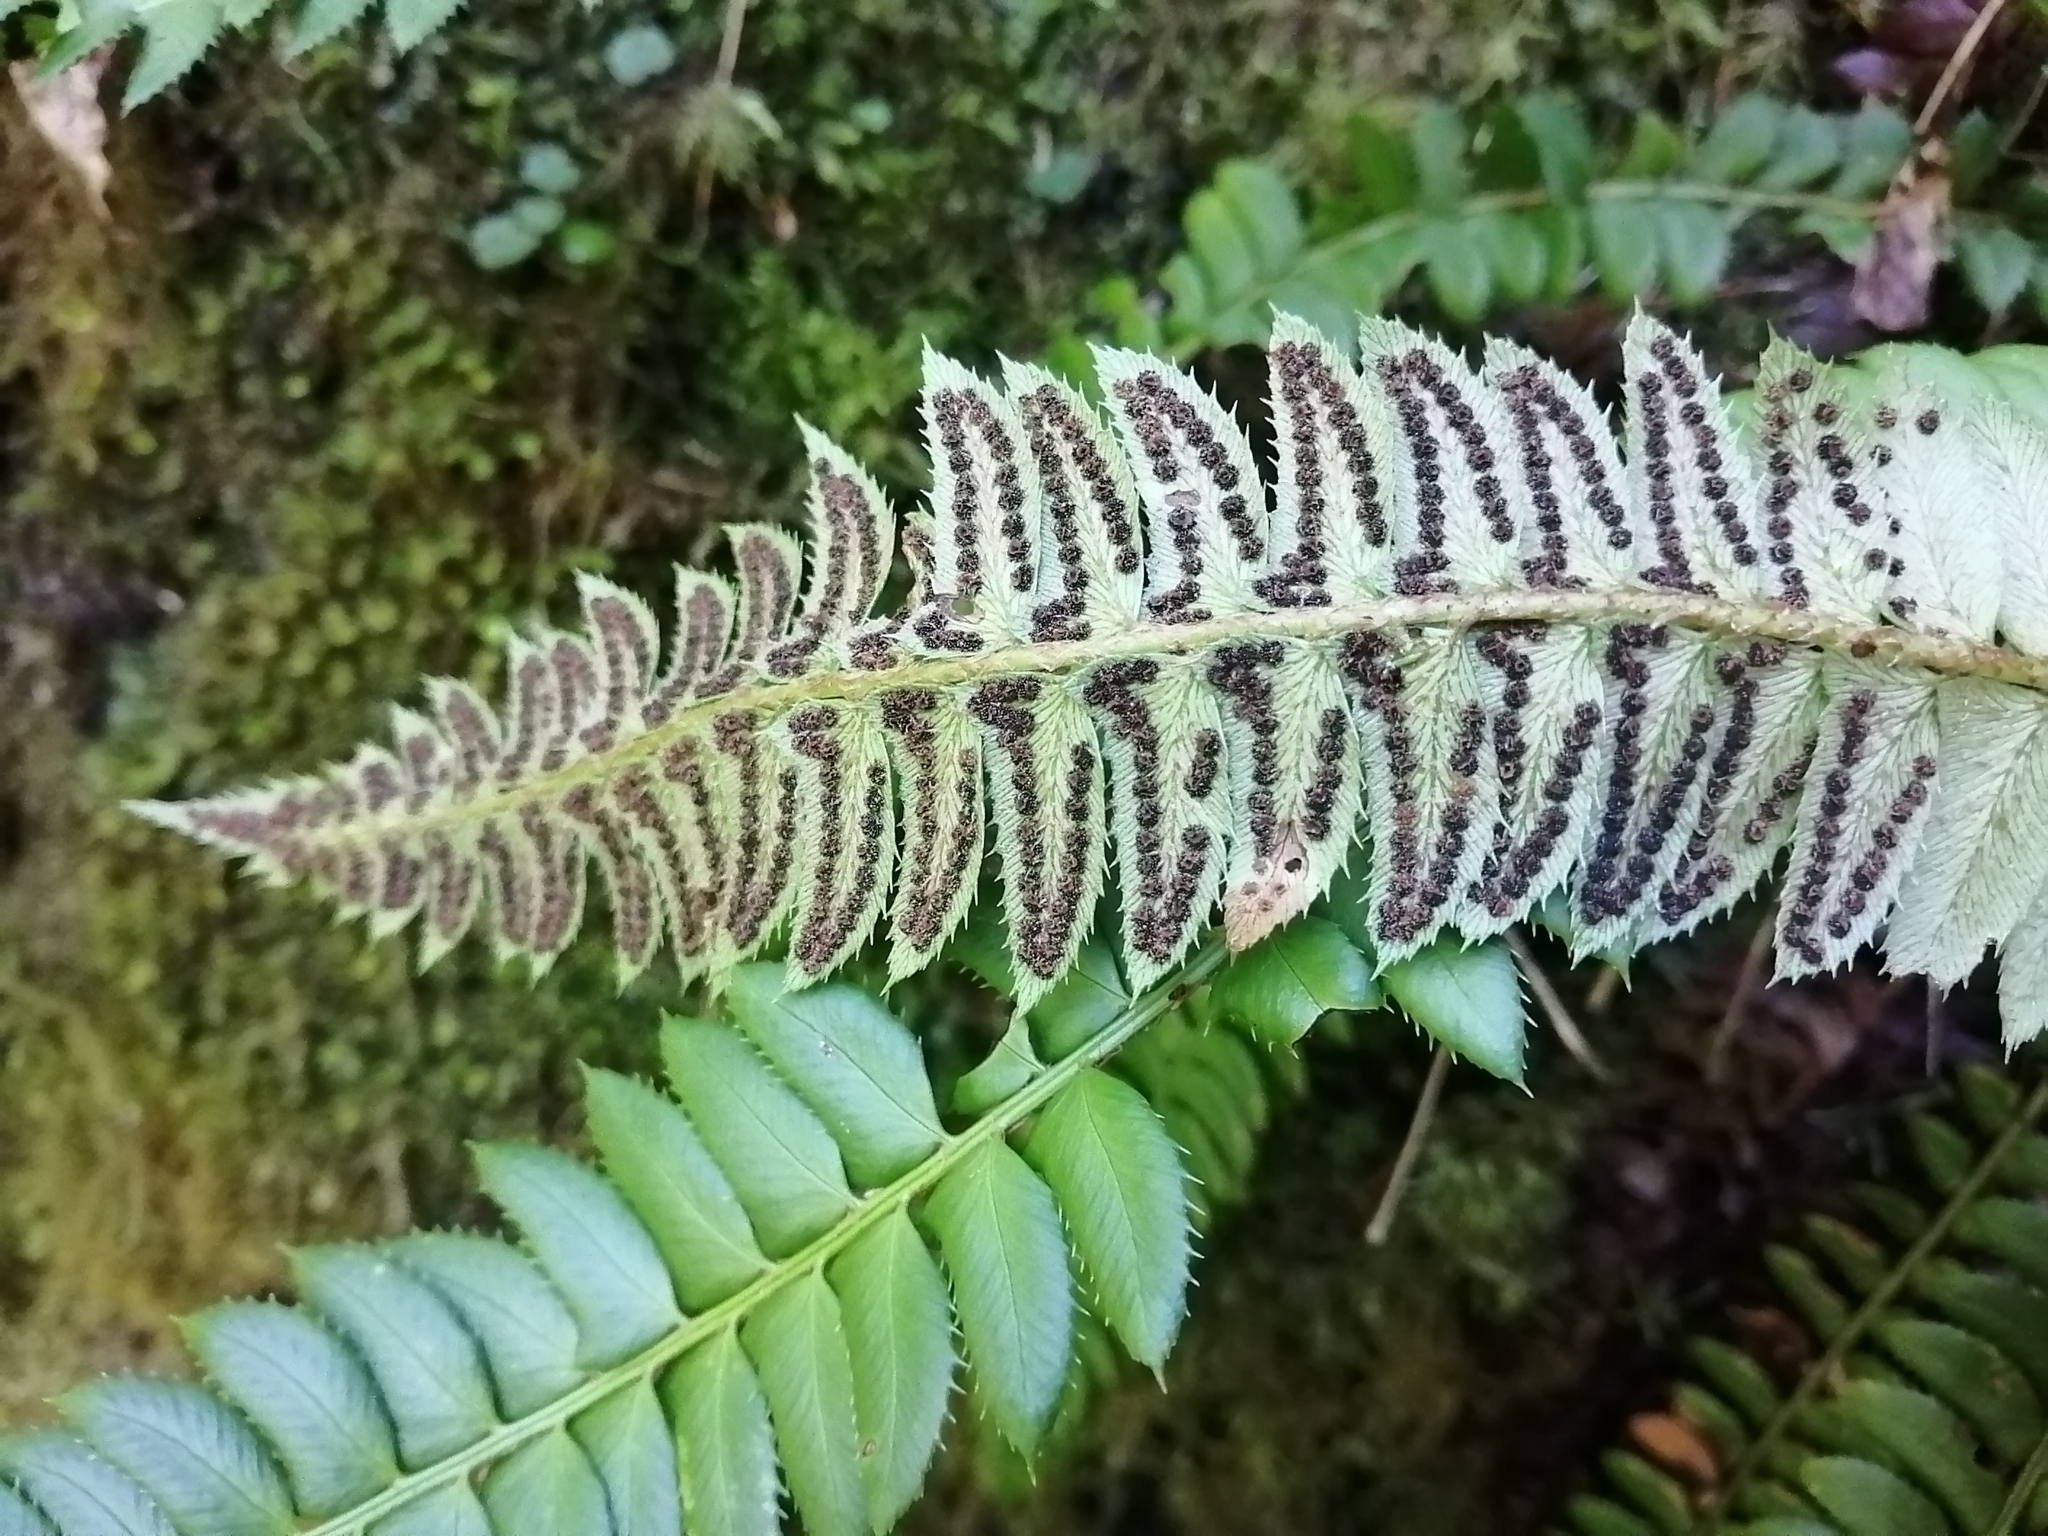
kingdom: Plantae
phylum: Tracheophyta
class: Polypodiopsida
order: Polypodiales
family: Dryopteridaceae
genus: Polystichum
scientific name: Polystichum lonchitis
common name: Holly fern
